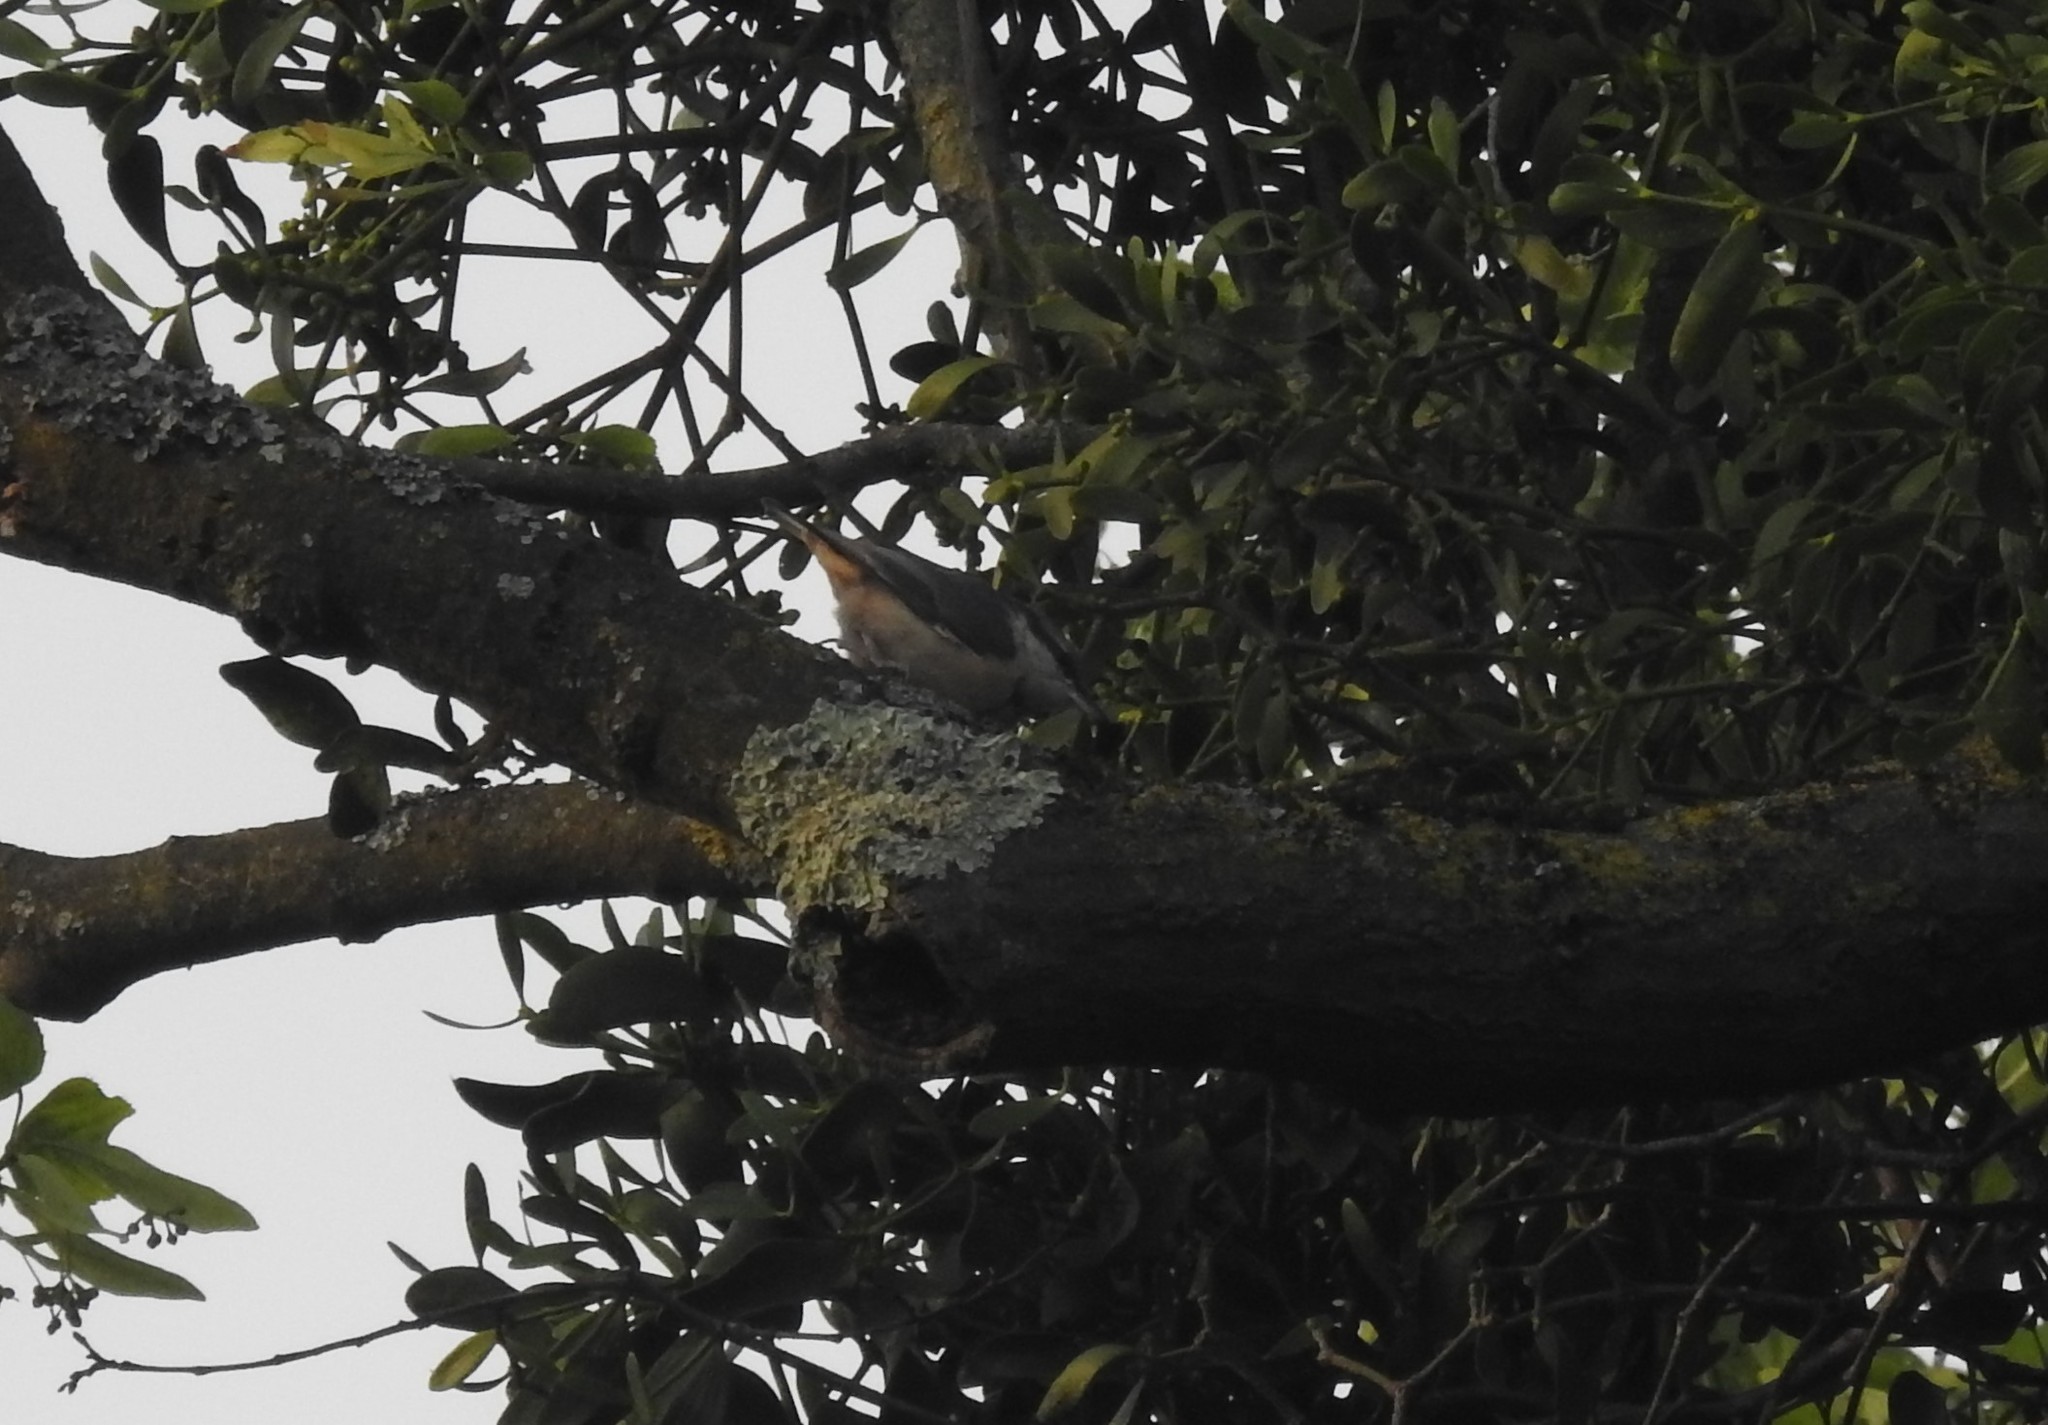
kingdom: Animalia
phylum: Chordata
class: Aves
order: Passeriformes
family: Sittidae
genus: Sitta
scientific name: Sitta europaea
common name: Eurasian nuthatch
